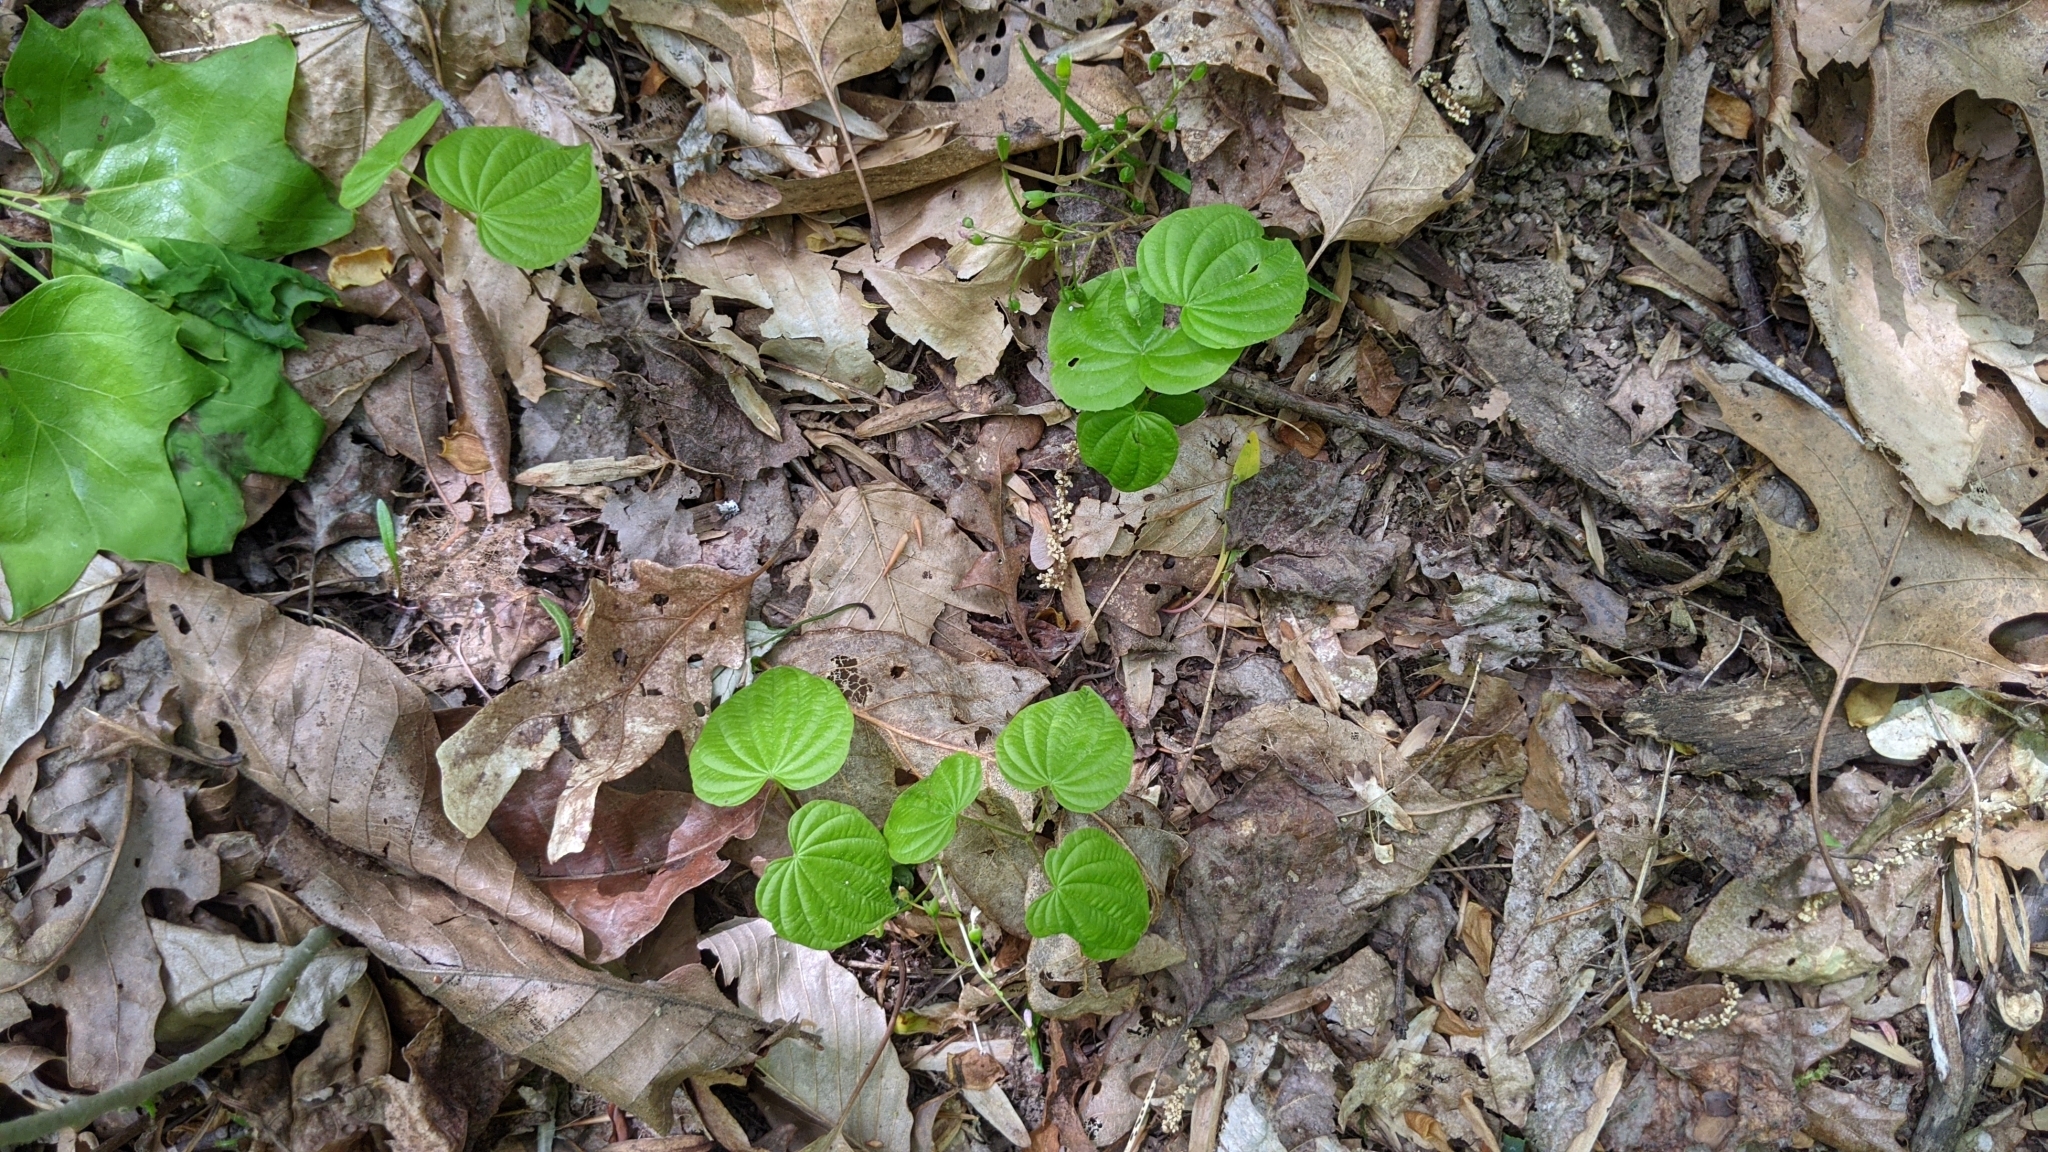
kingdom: Plantae
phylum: Tracheophyta
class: Liliopsida
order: Dioscoreales
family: Dioscoreaceae
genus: Dioscorea
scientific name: Dioscorea villosa
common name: Wild yam
